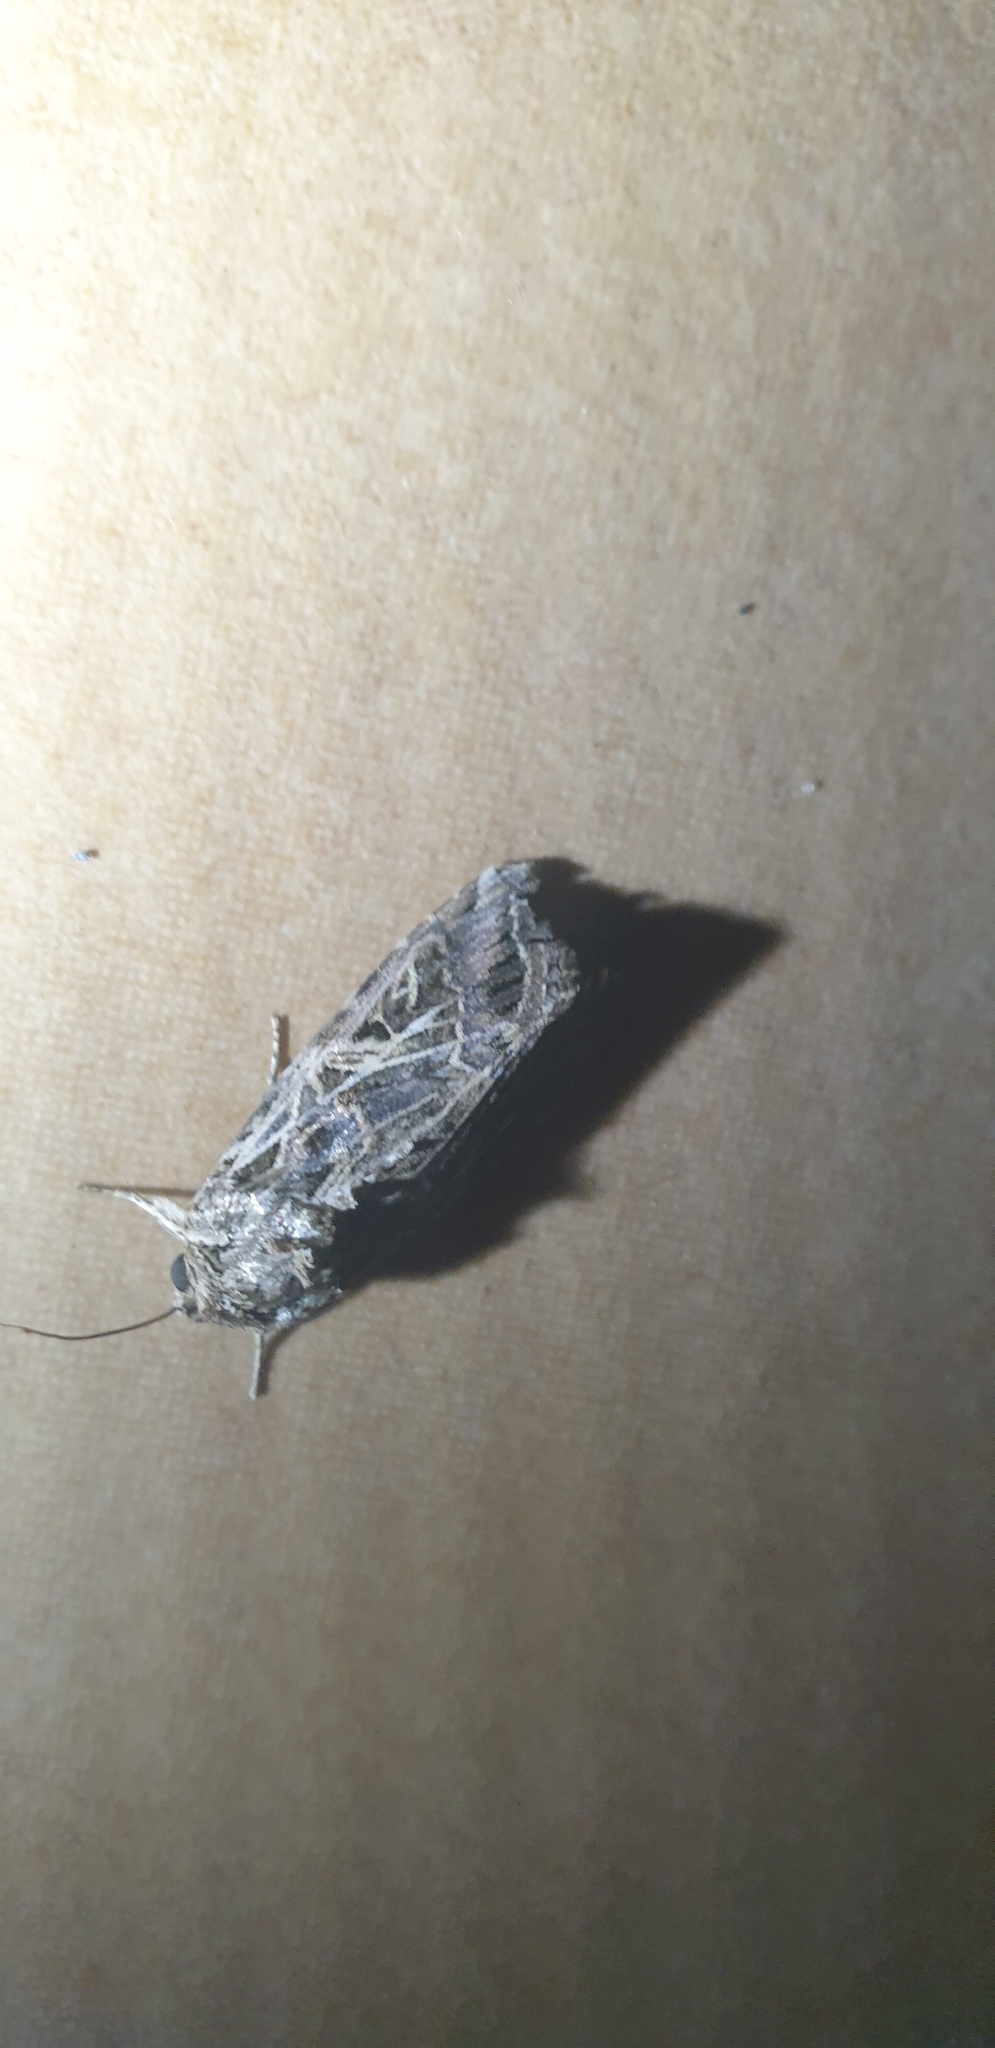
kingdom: Animalia
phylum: Arthropoda
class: Insecta
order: Lepidoptera
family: Noctuidae
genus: Spodoptera
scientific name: Spodoptera litura
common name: Asian cotton leafworm
